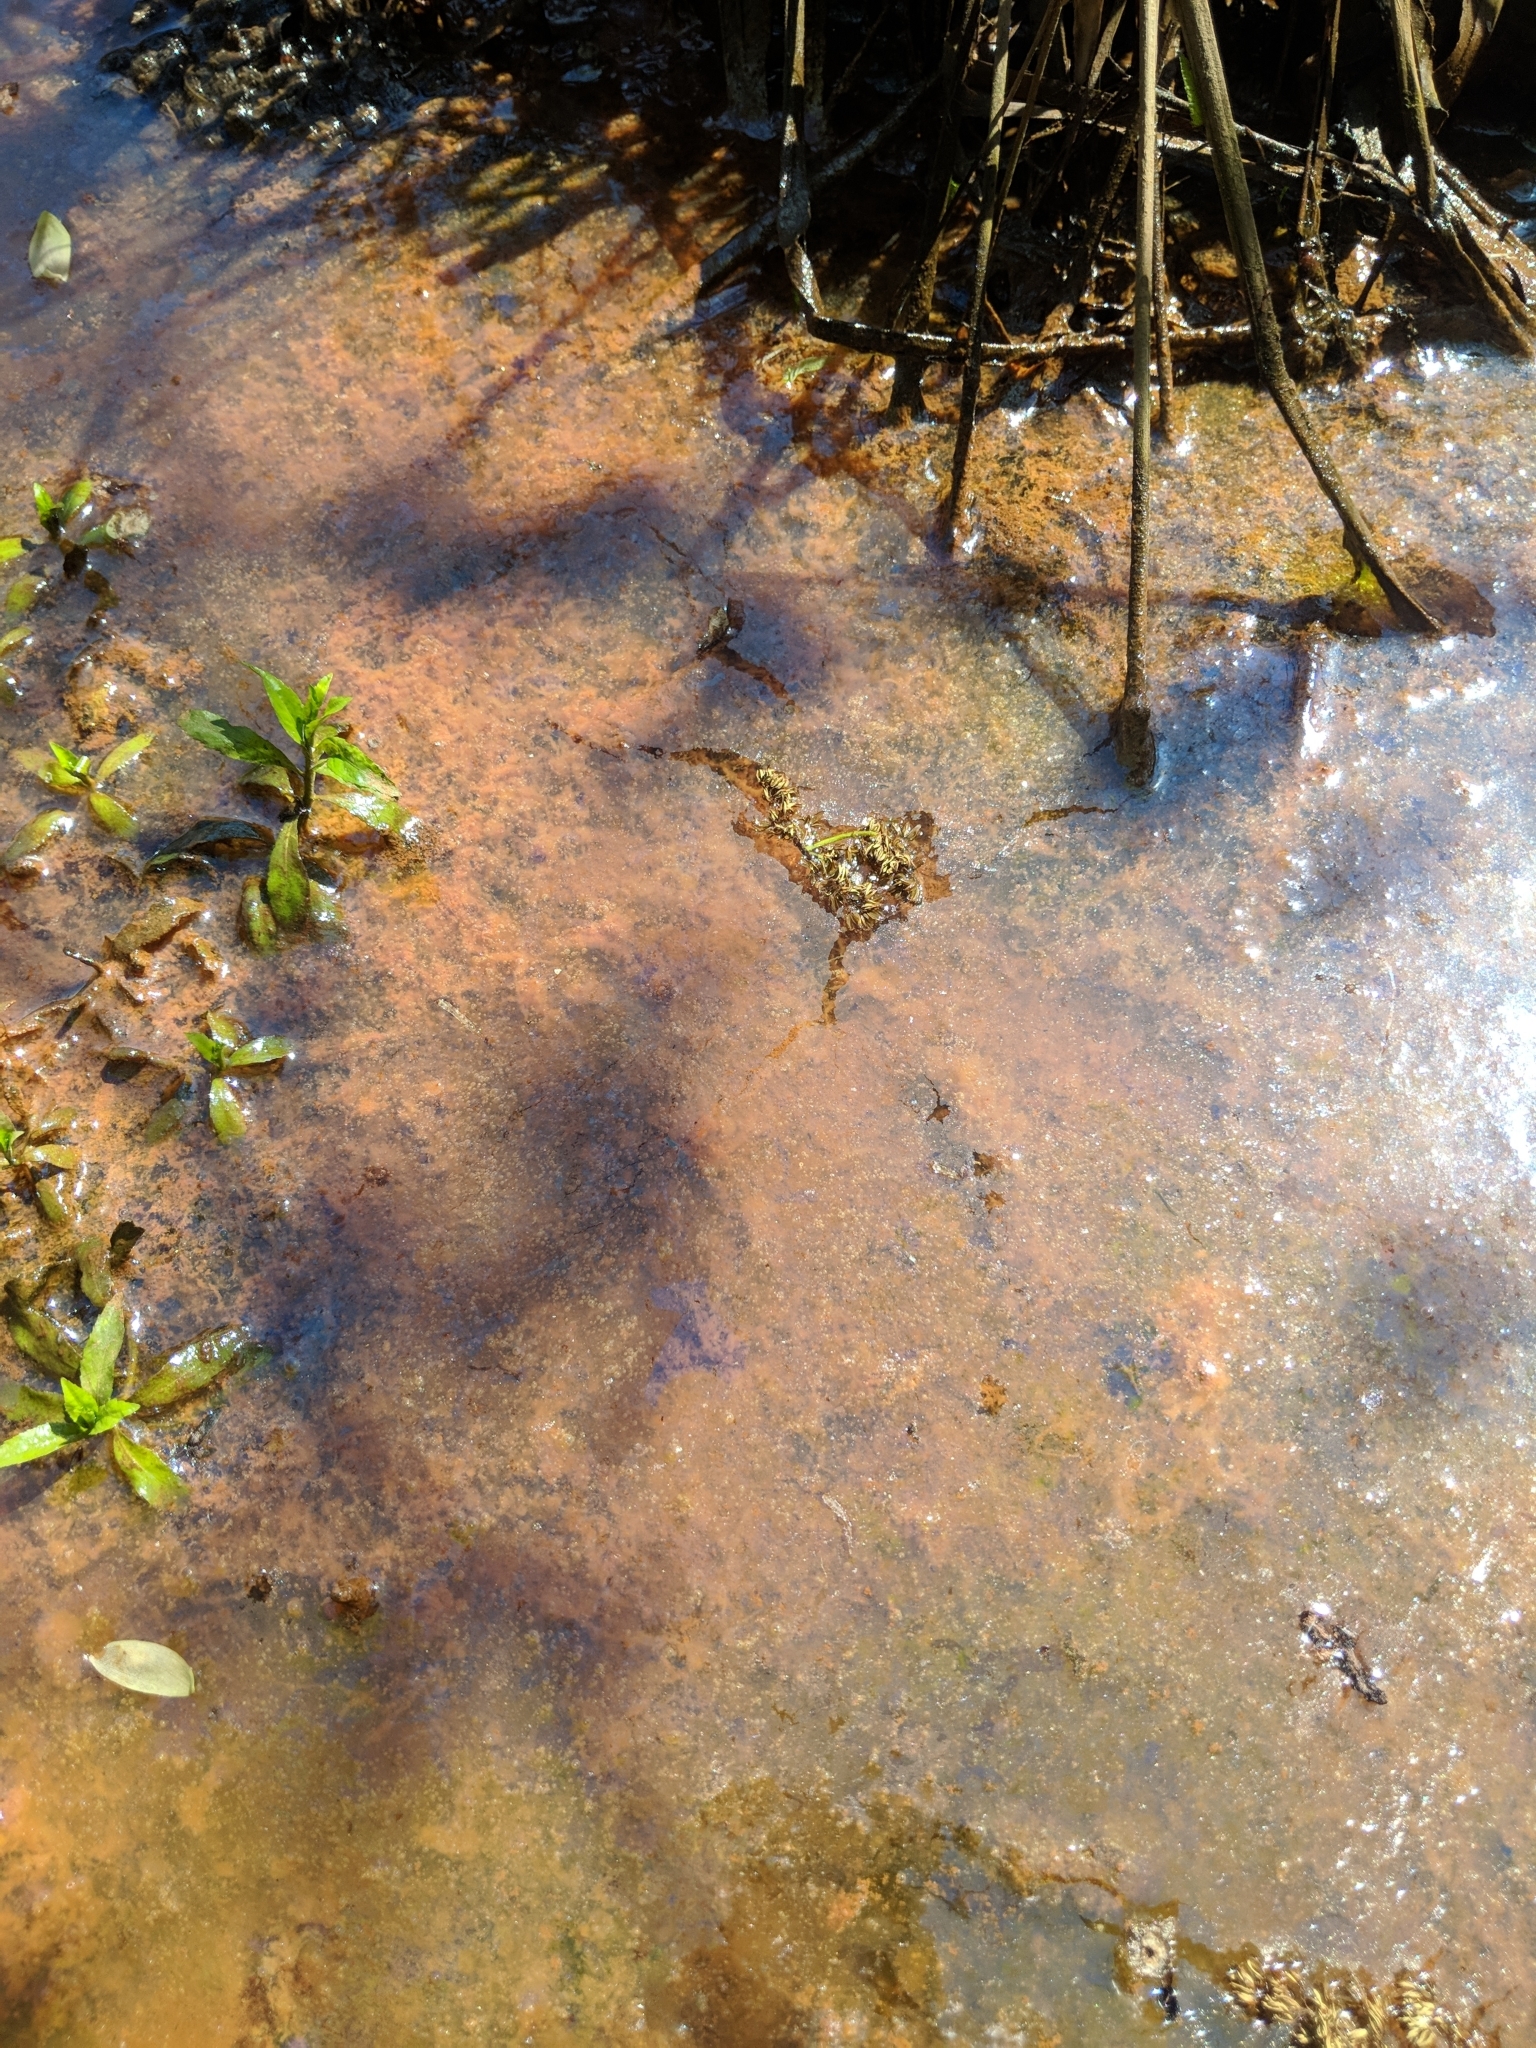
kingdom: Bacteria
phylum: Proteobacteria
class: Gammaproteobacteria
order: Burkholderiales
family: Burkholderiaceae
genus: Leptothrix
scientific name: Leptothrix
